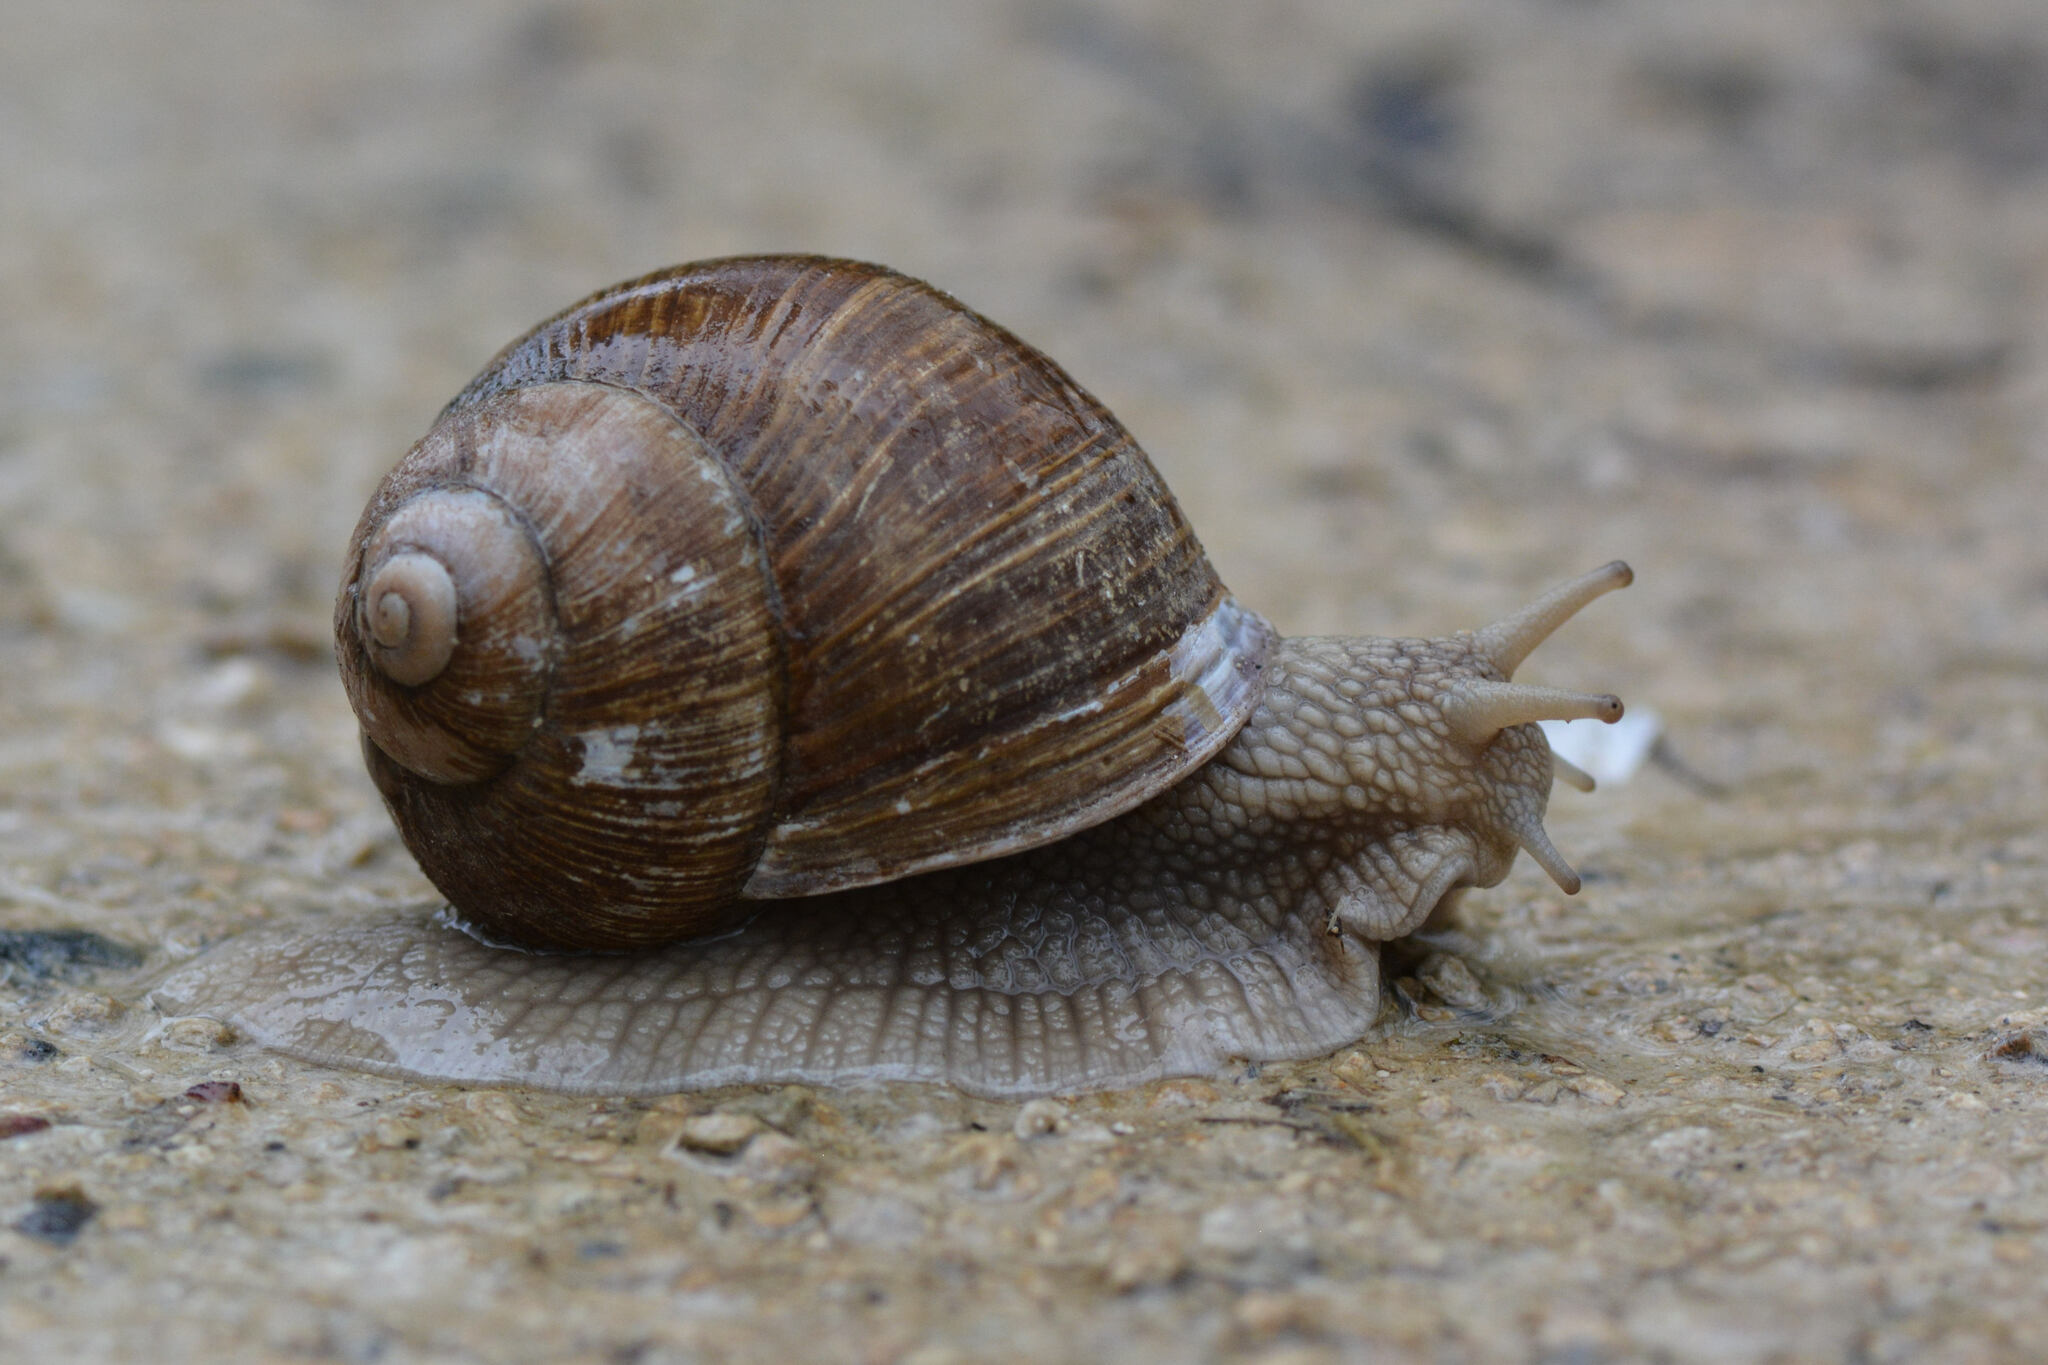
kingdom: Animalia
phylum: Mollusca
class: Gastropoda
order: Stylommatophora
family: Helicidae
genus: Helix
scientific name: Helix pomatia
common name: Roman snail
